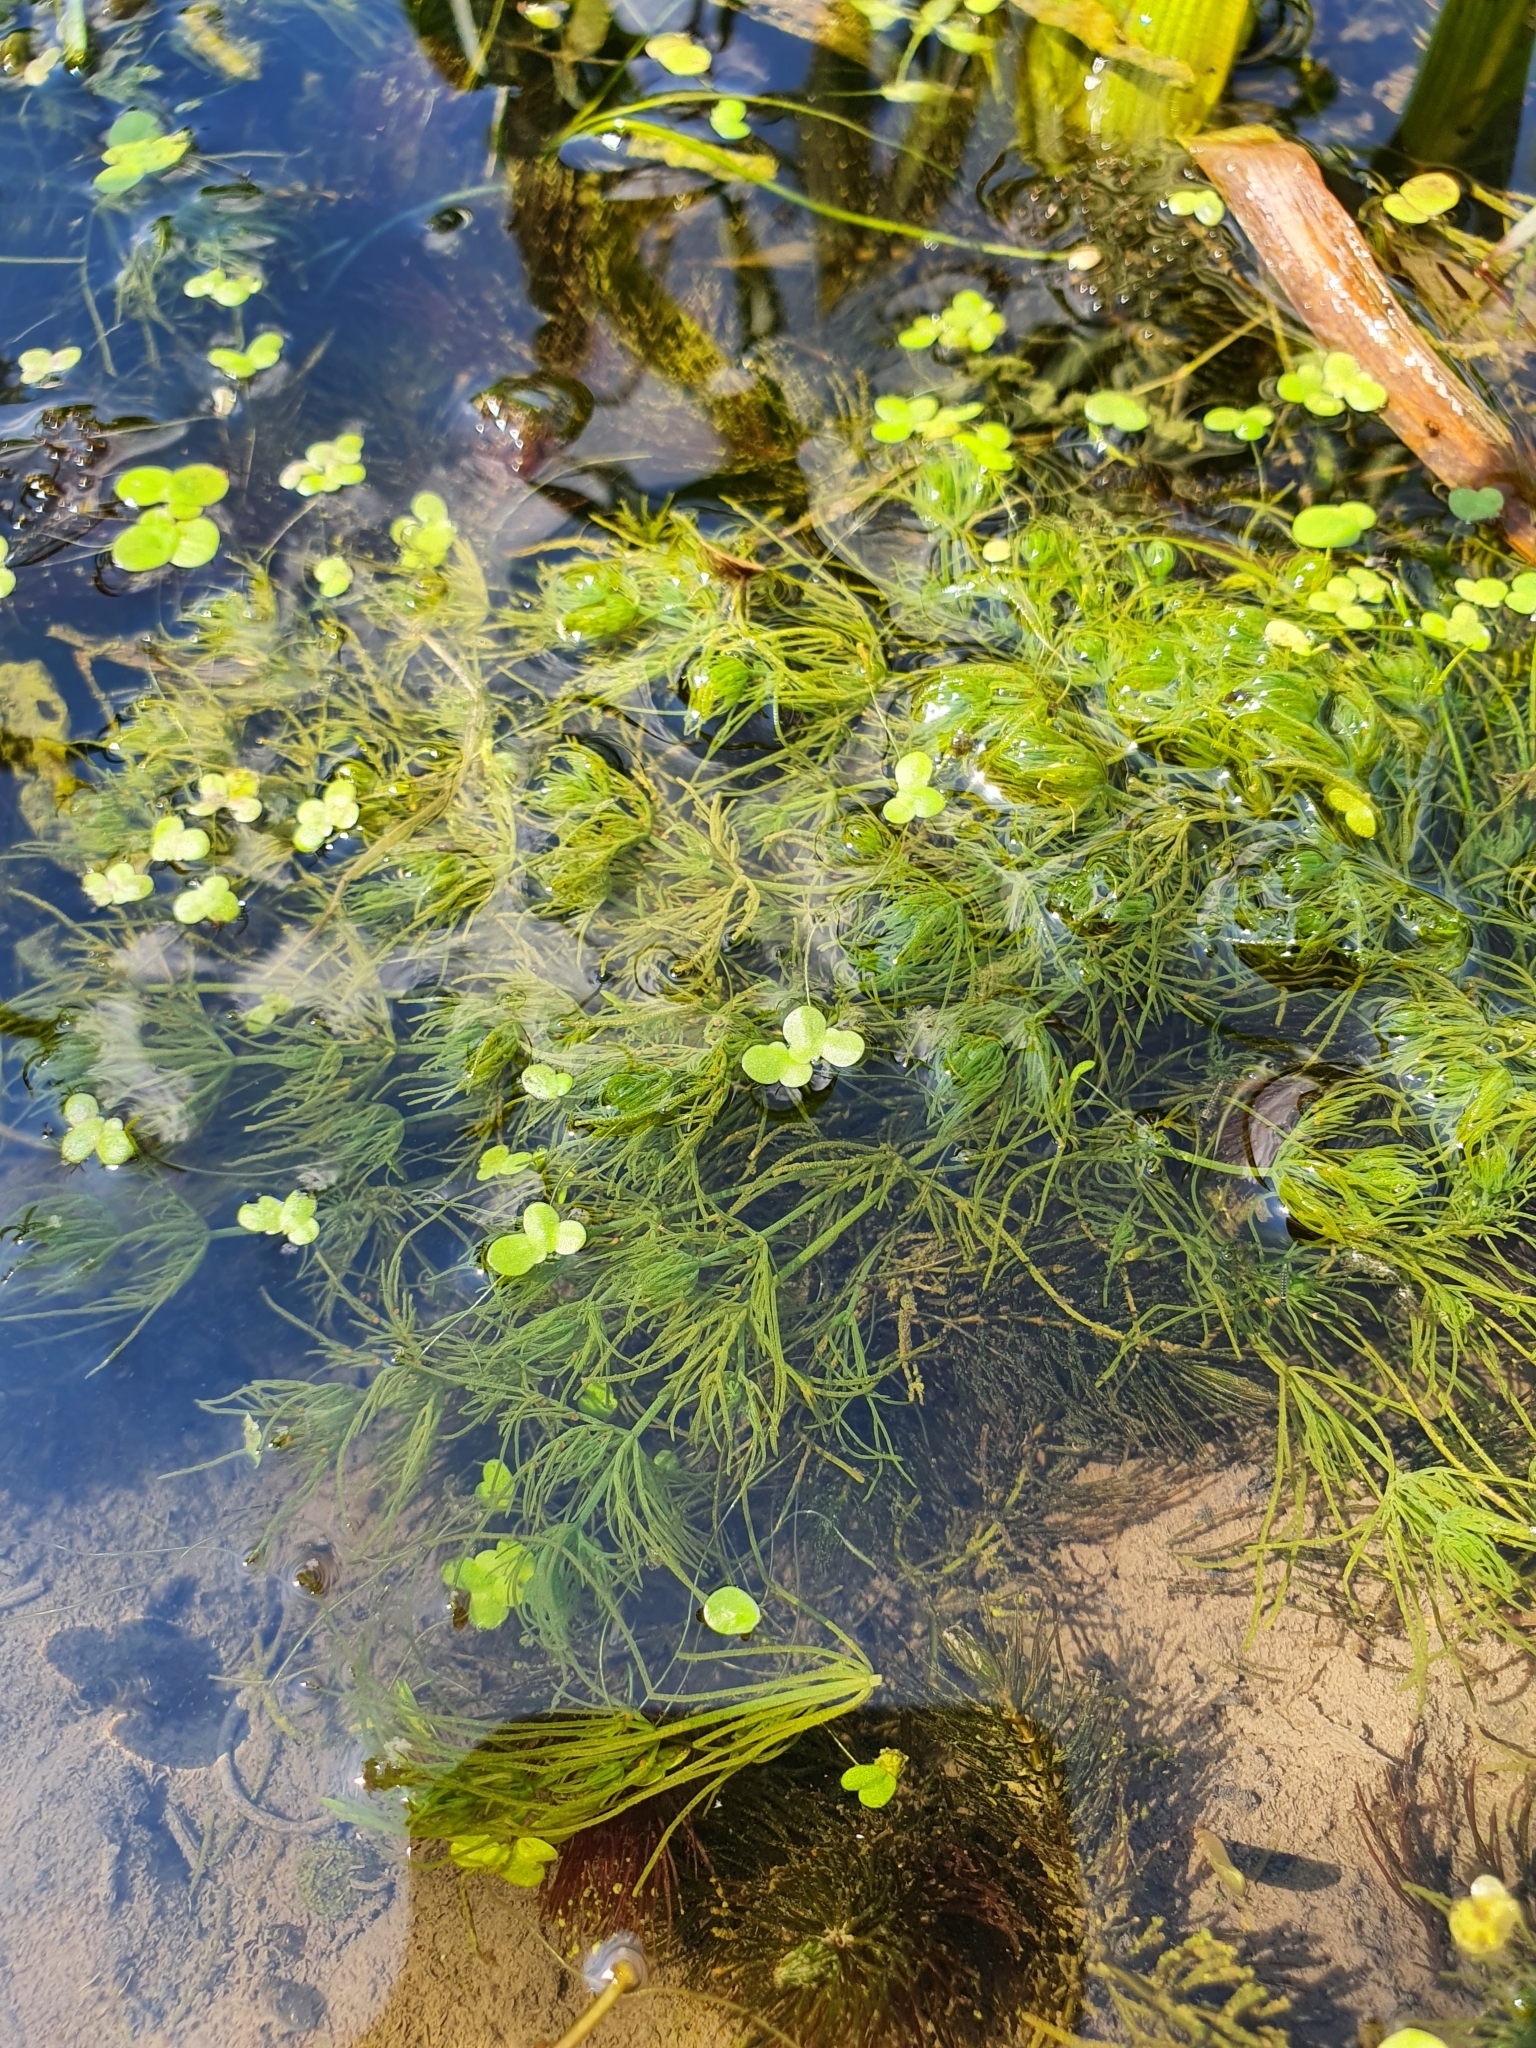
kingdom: Plantae
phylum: Charophyta
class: Charophyceae
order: Charales
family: Characeae
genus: Chara
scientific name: Chara vulgaris
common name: Common stonewort
